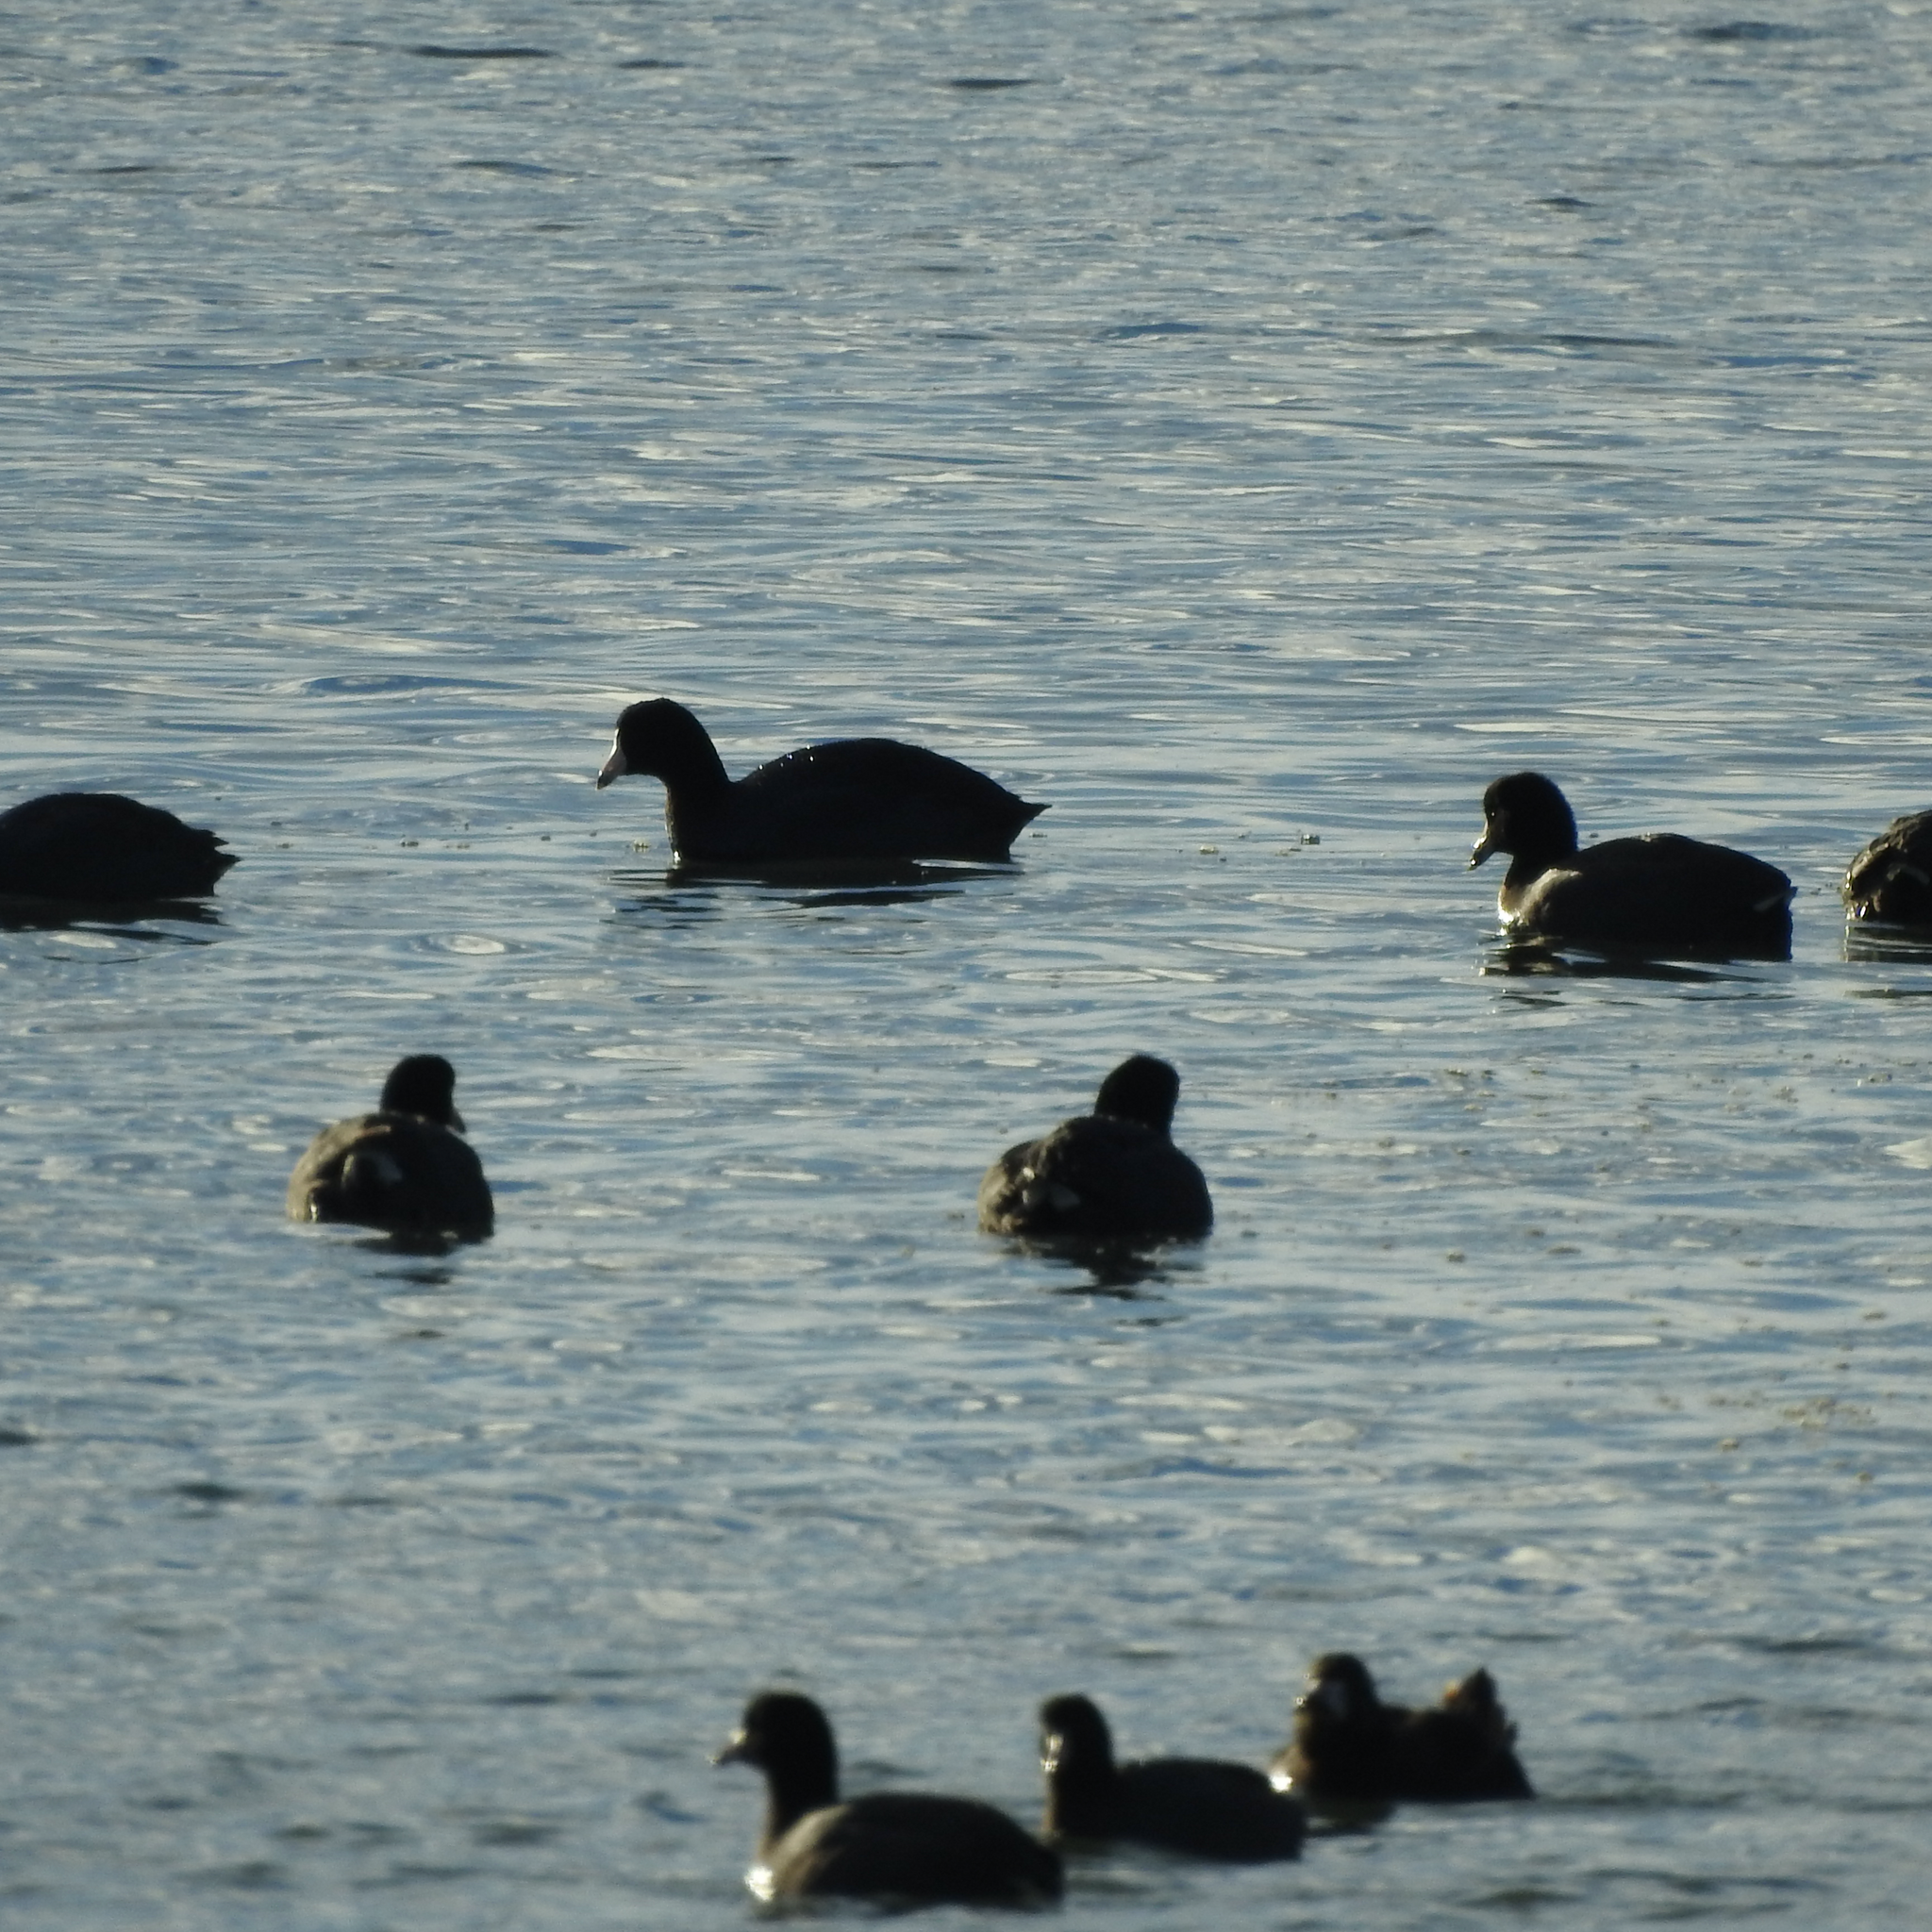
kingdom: Animalia
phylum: Chordata
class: Aves
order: Gruiformes
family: Rallidae
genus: Fulica
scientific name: Fulica americana
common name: American coot
